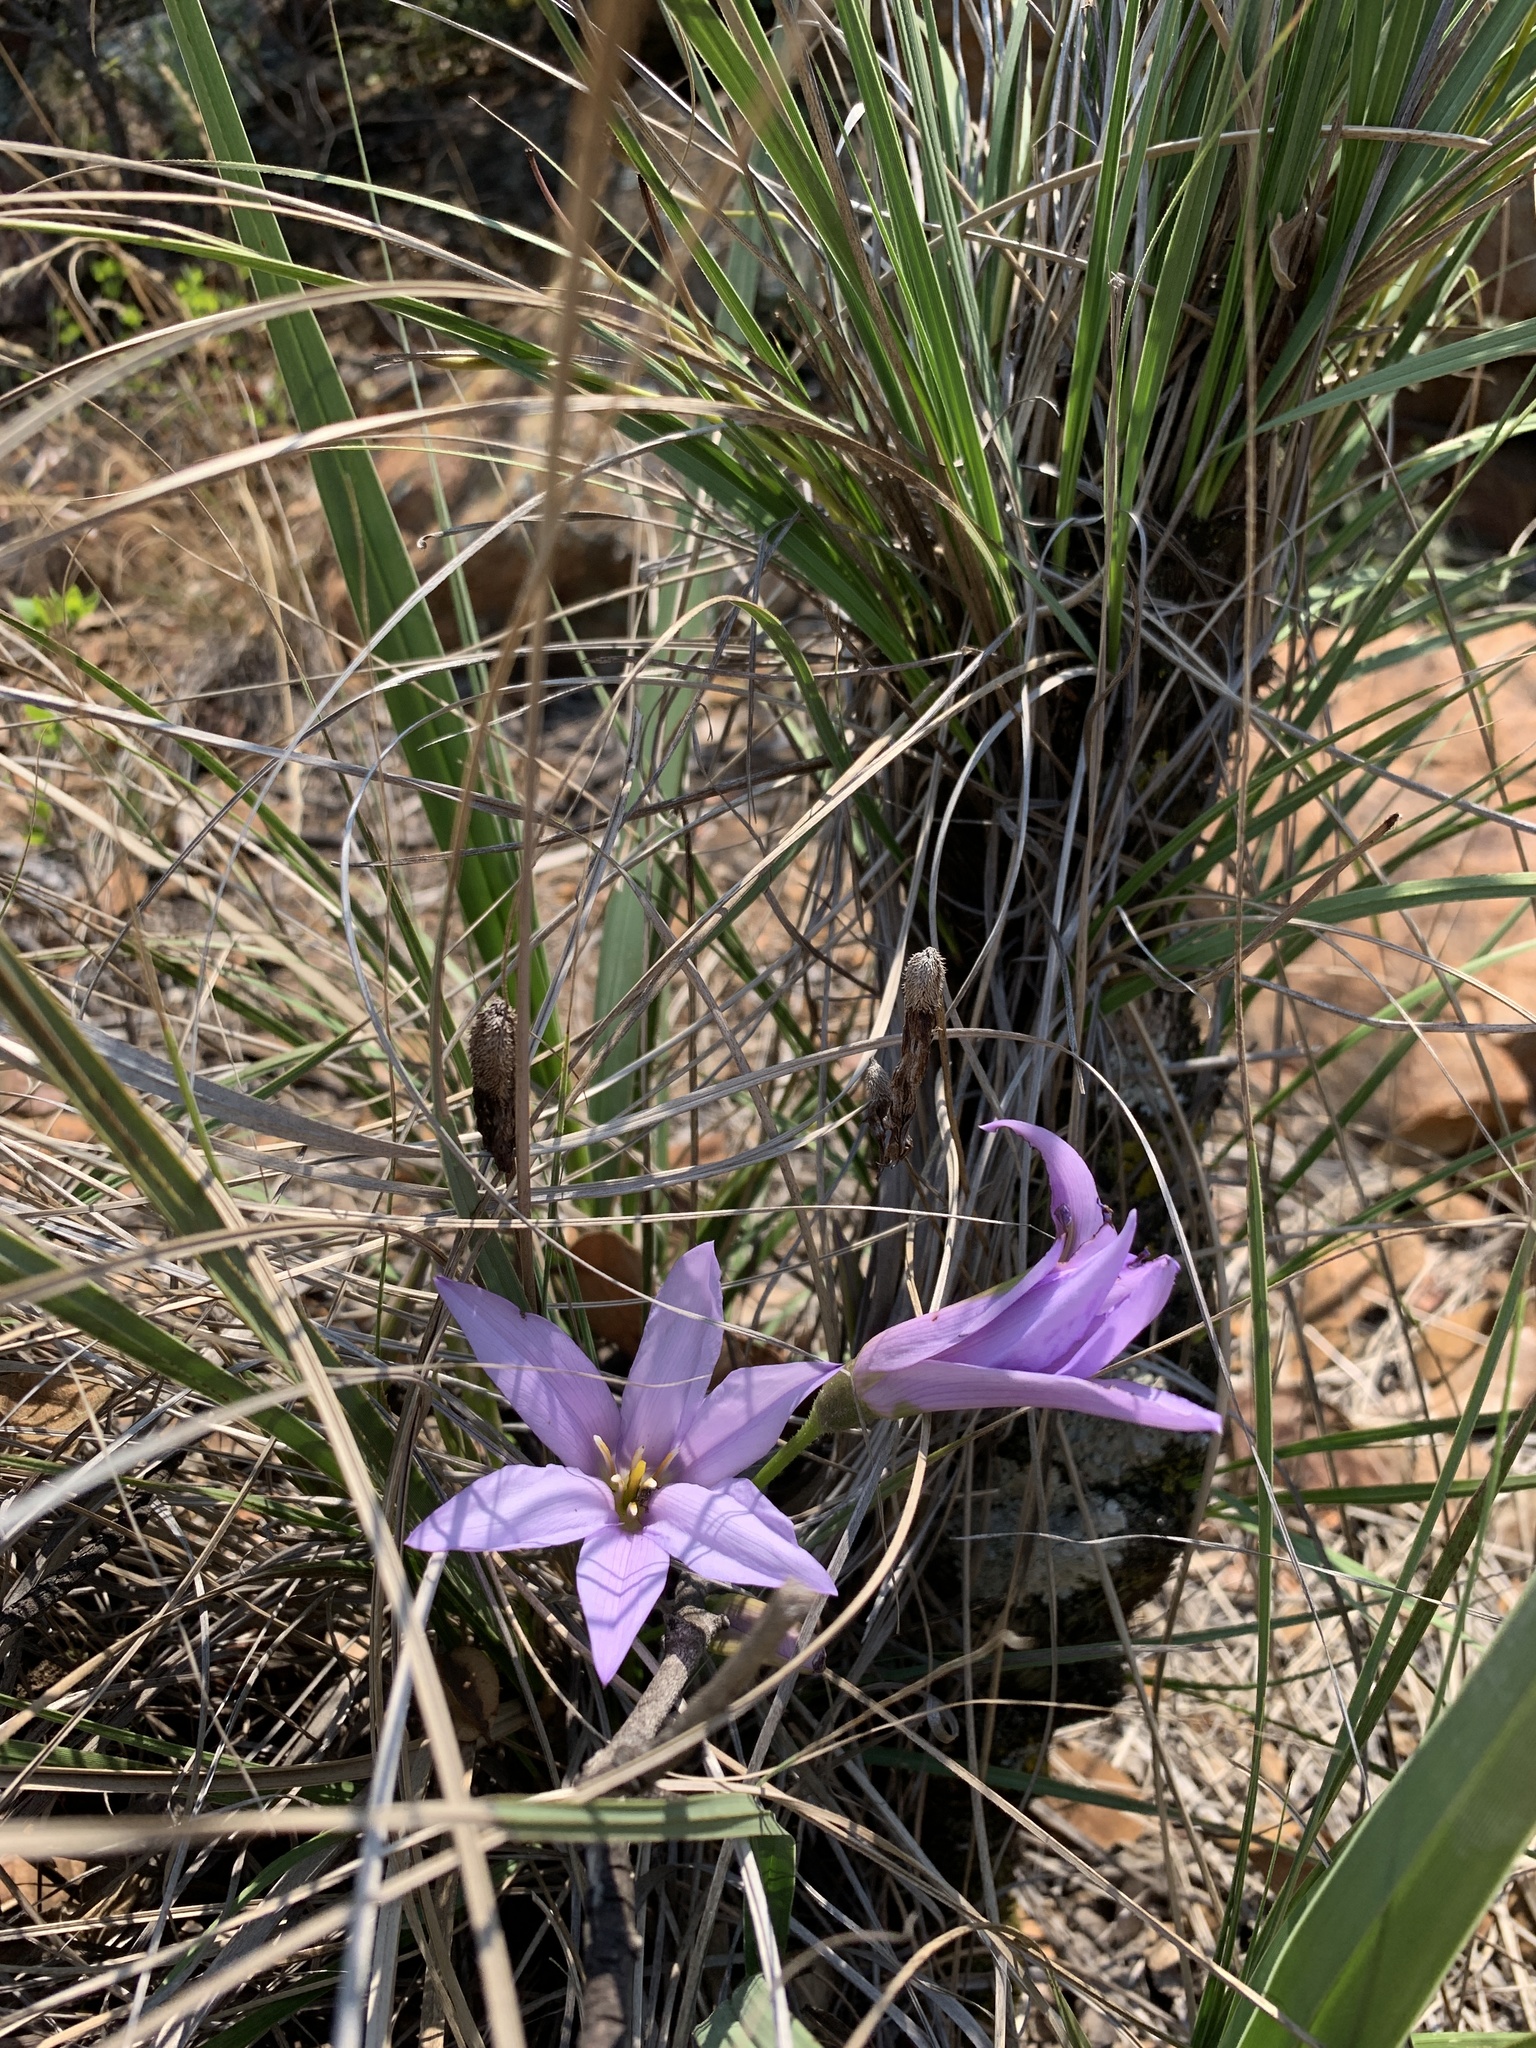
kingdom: Plantae
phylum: Tracheophyta
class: Liliopsida
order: Pandanales
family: Velloziaceae
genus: Xerophyta
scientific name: Xerophyta retinervis
